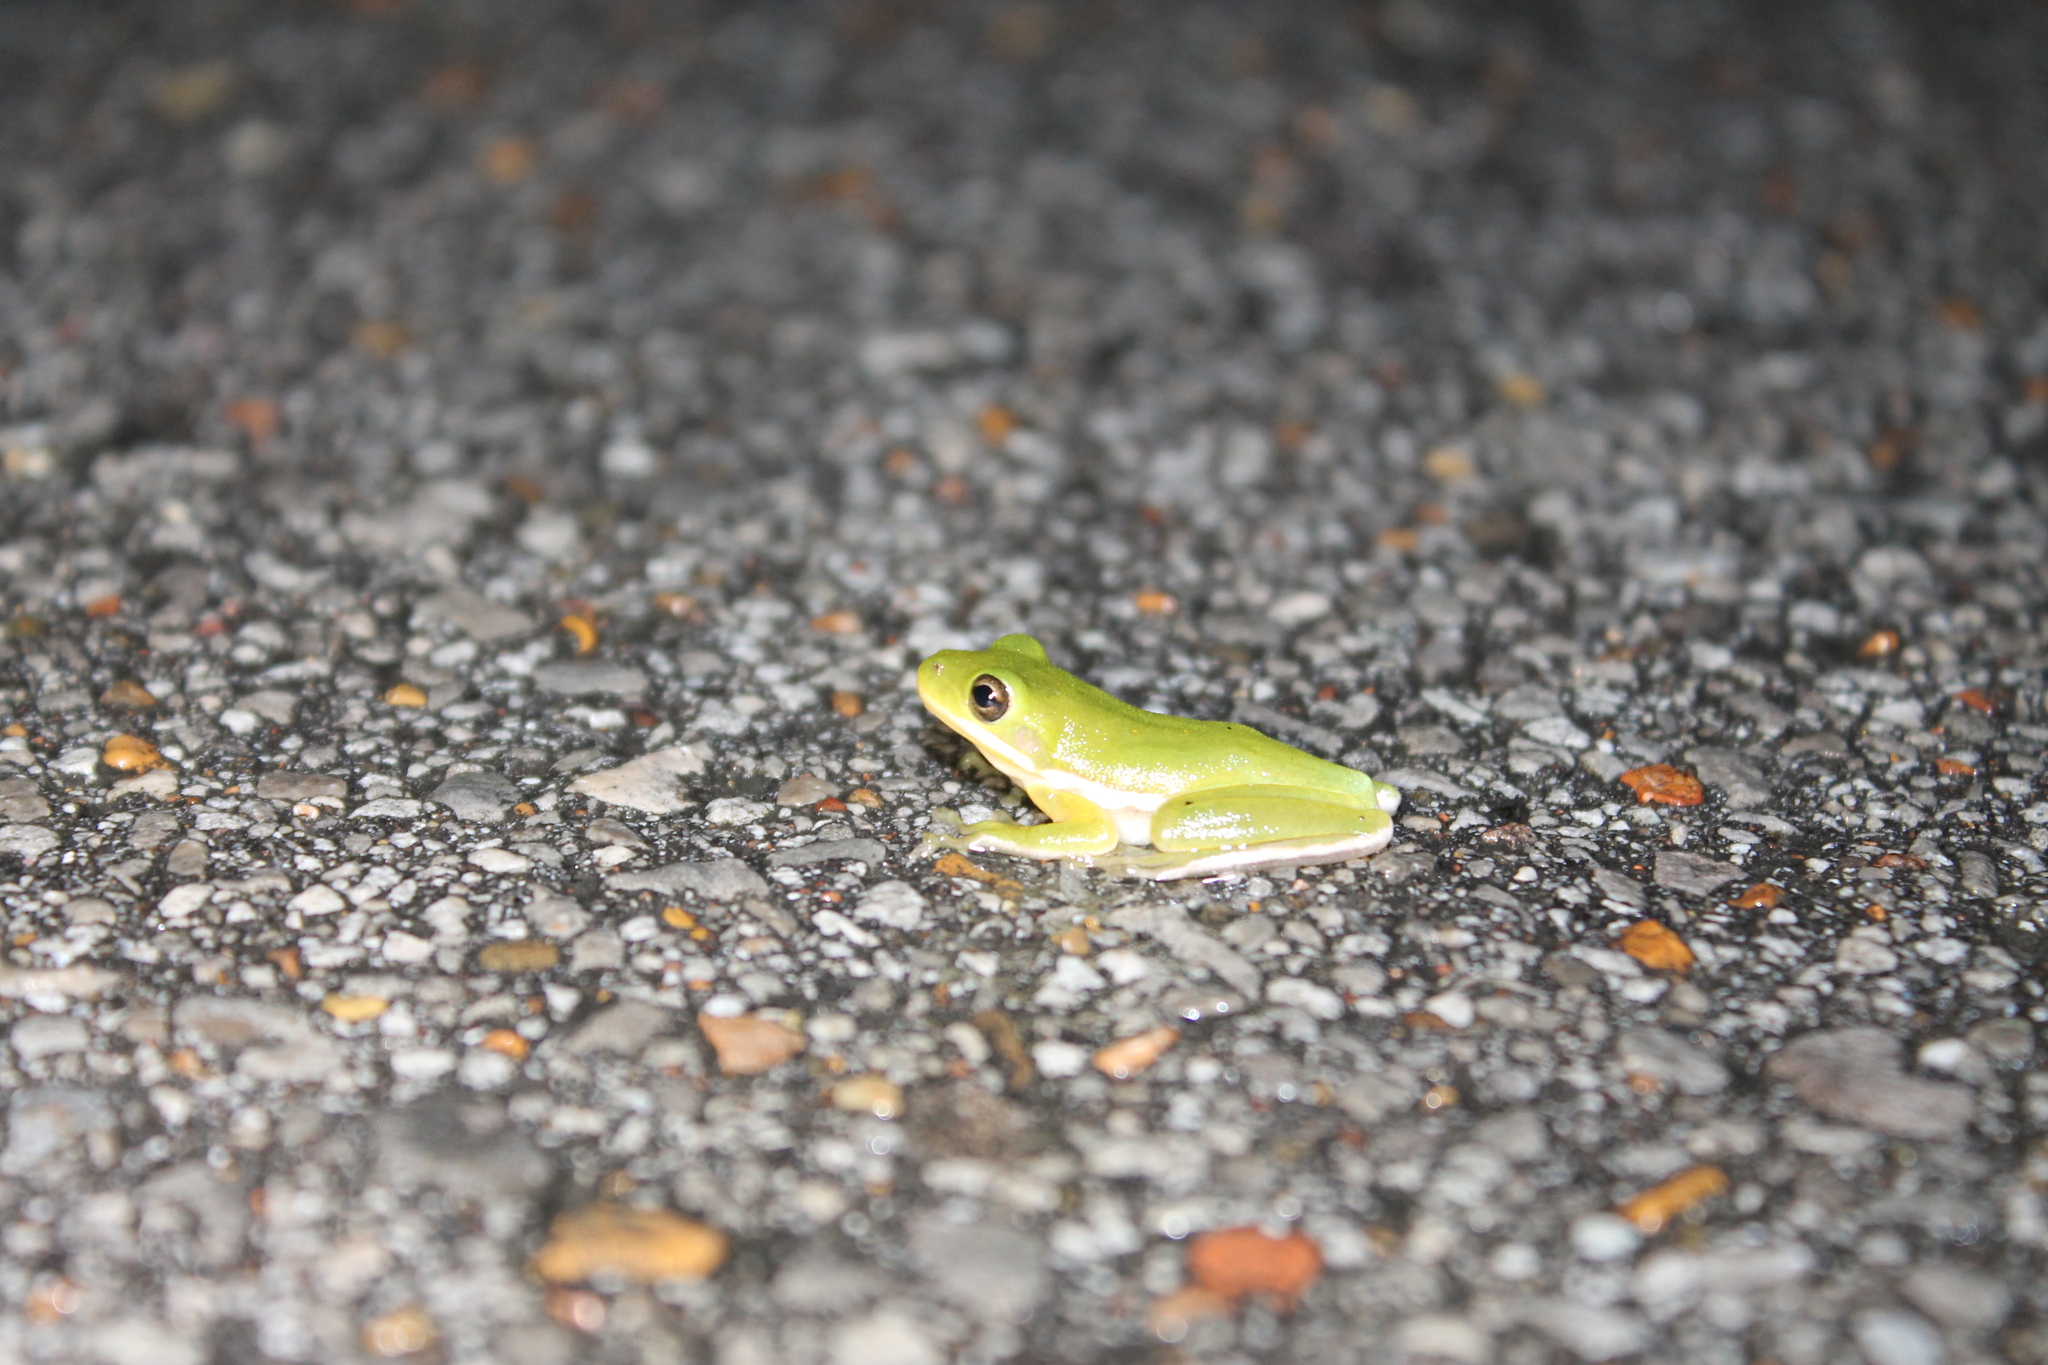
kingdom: Animalia
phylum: Chordata
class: Amphibia
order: Anura
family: Hylidae
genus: Dryophytes
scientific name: Dryophytes cinereus
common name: Green treefrog
